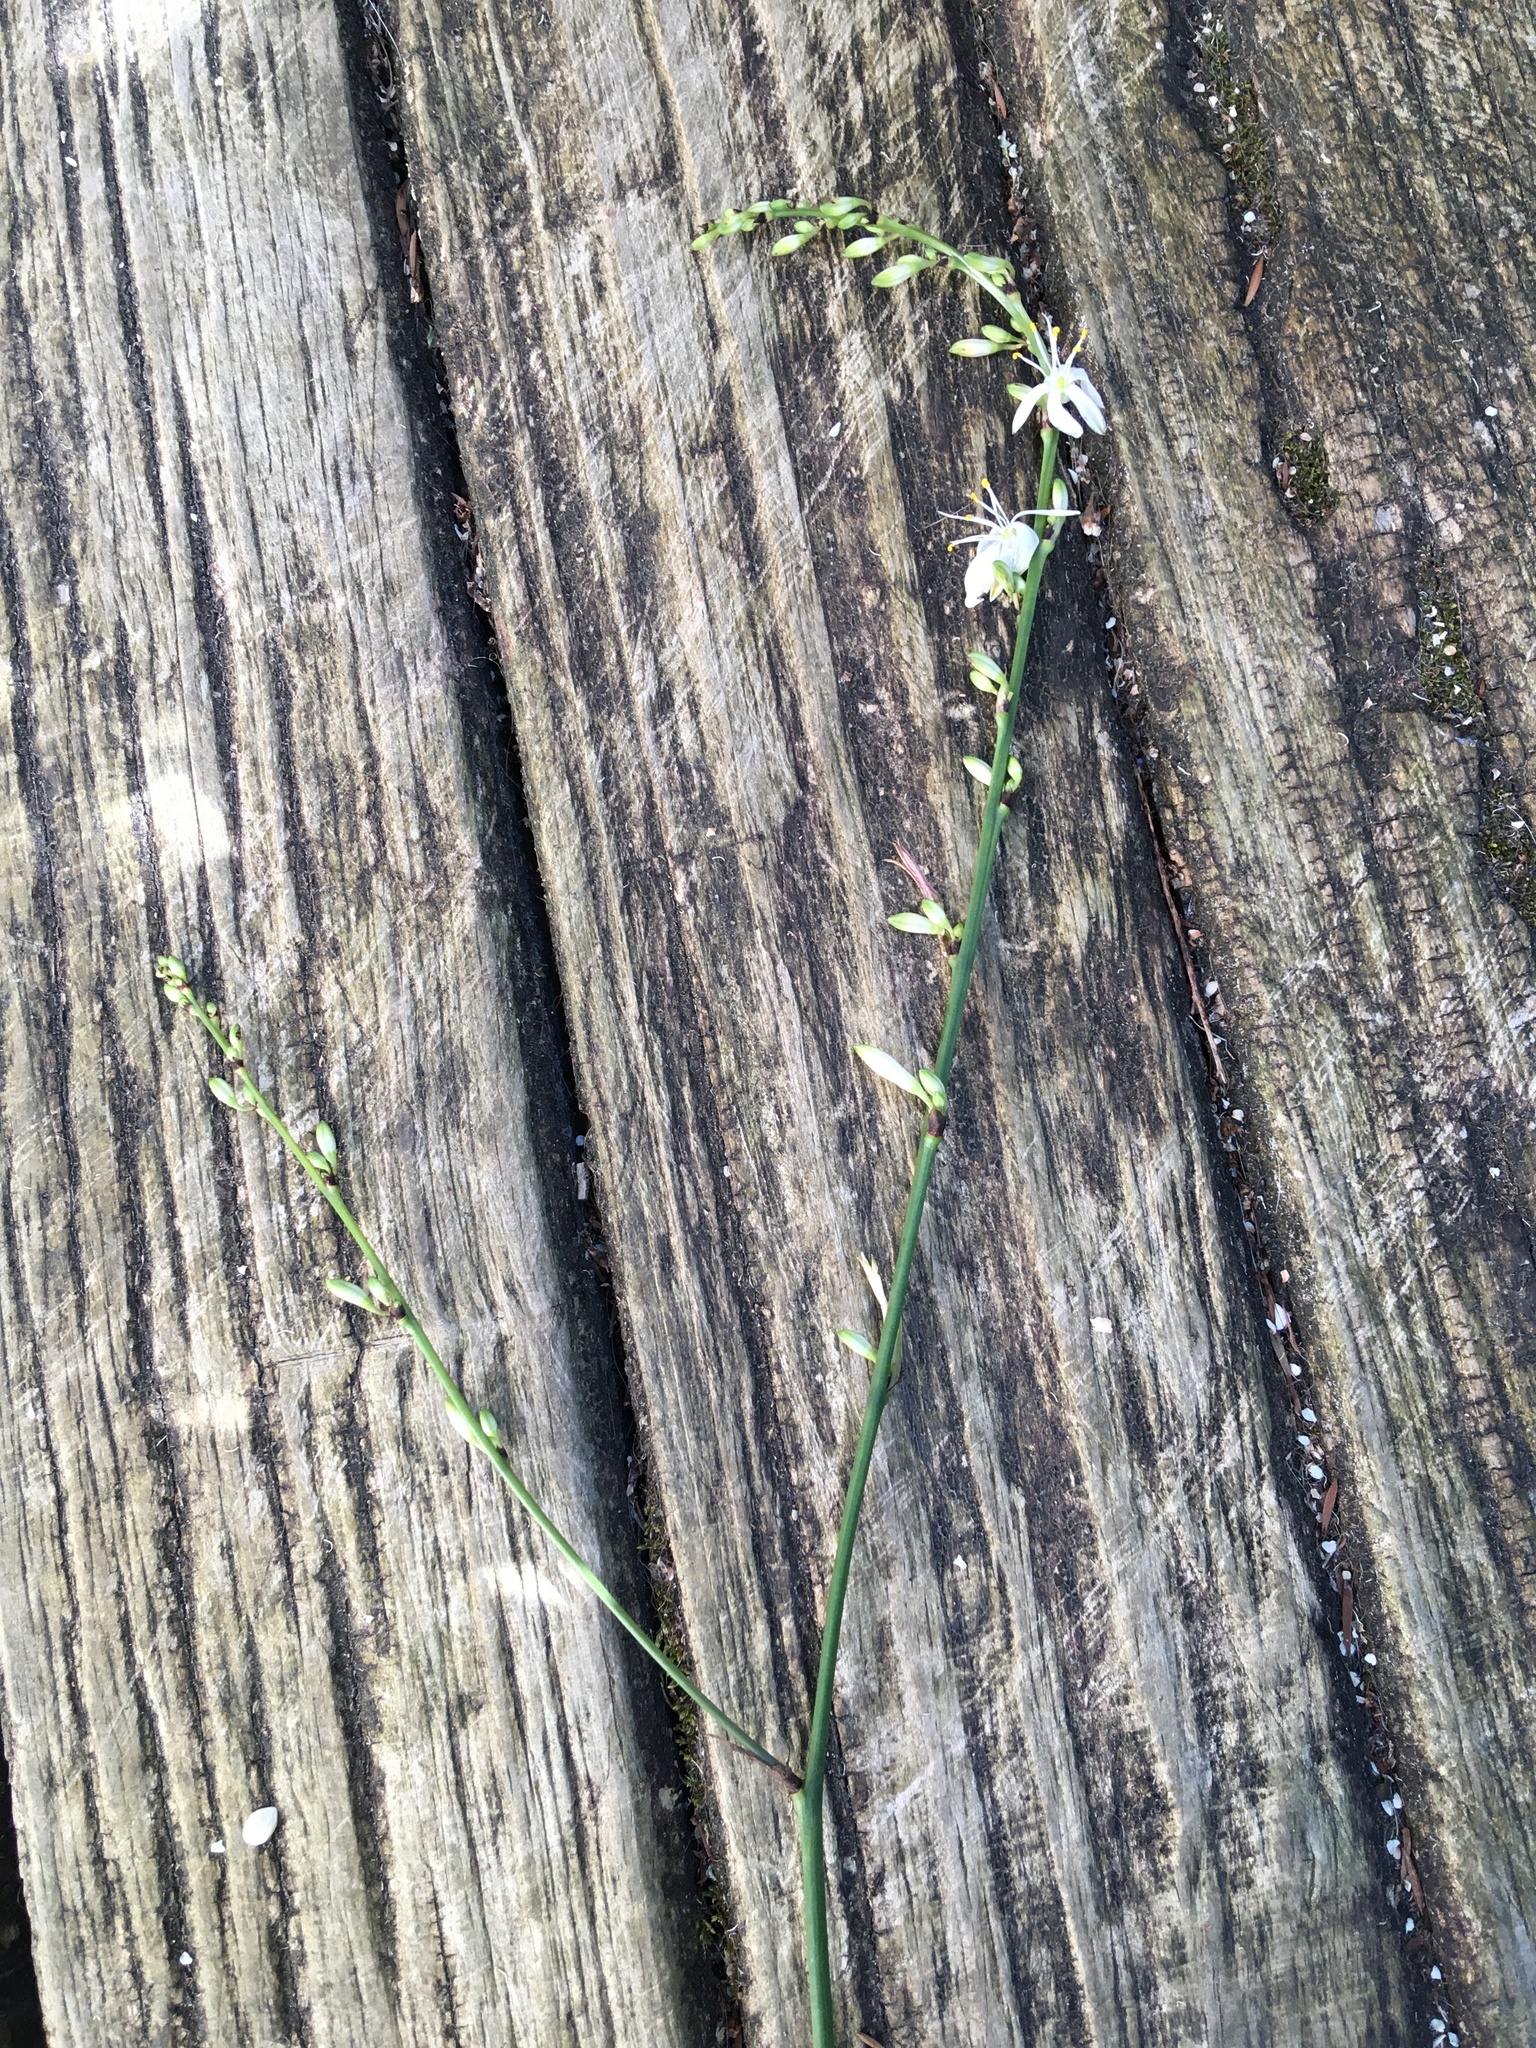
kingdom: Plantae
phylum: Tracheophyta
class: Liliopsida
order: Asparagales
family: Asparagaceae
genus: Chlorophytum
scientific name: Chlorophytum comosum
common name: Spider plant
